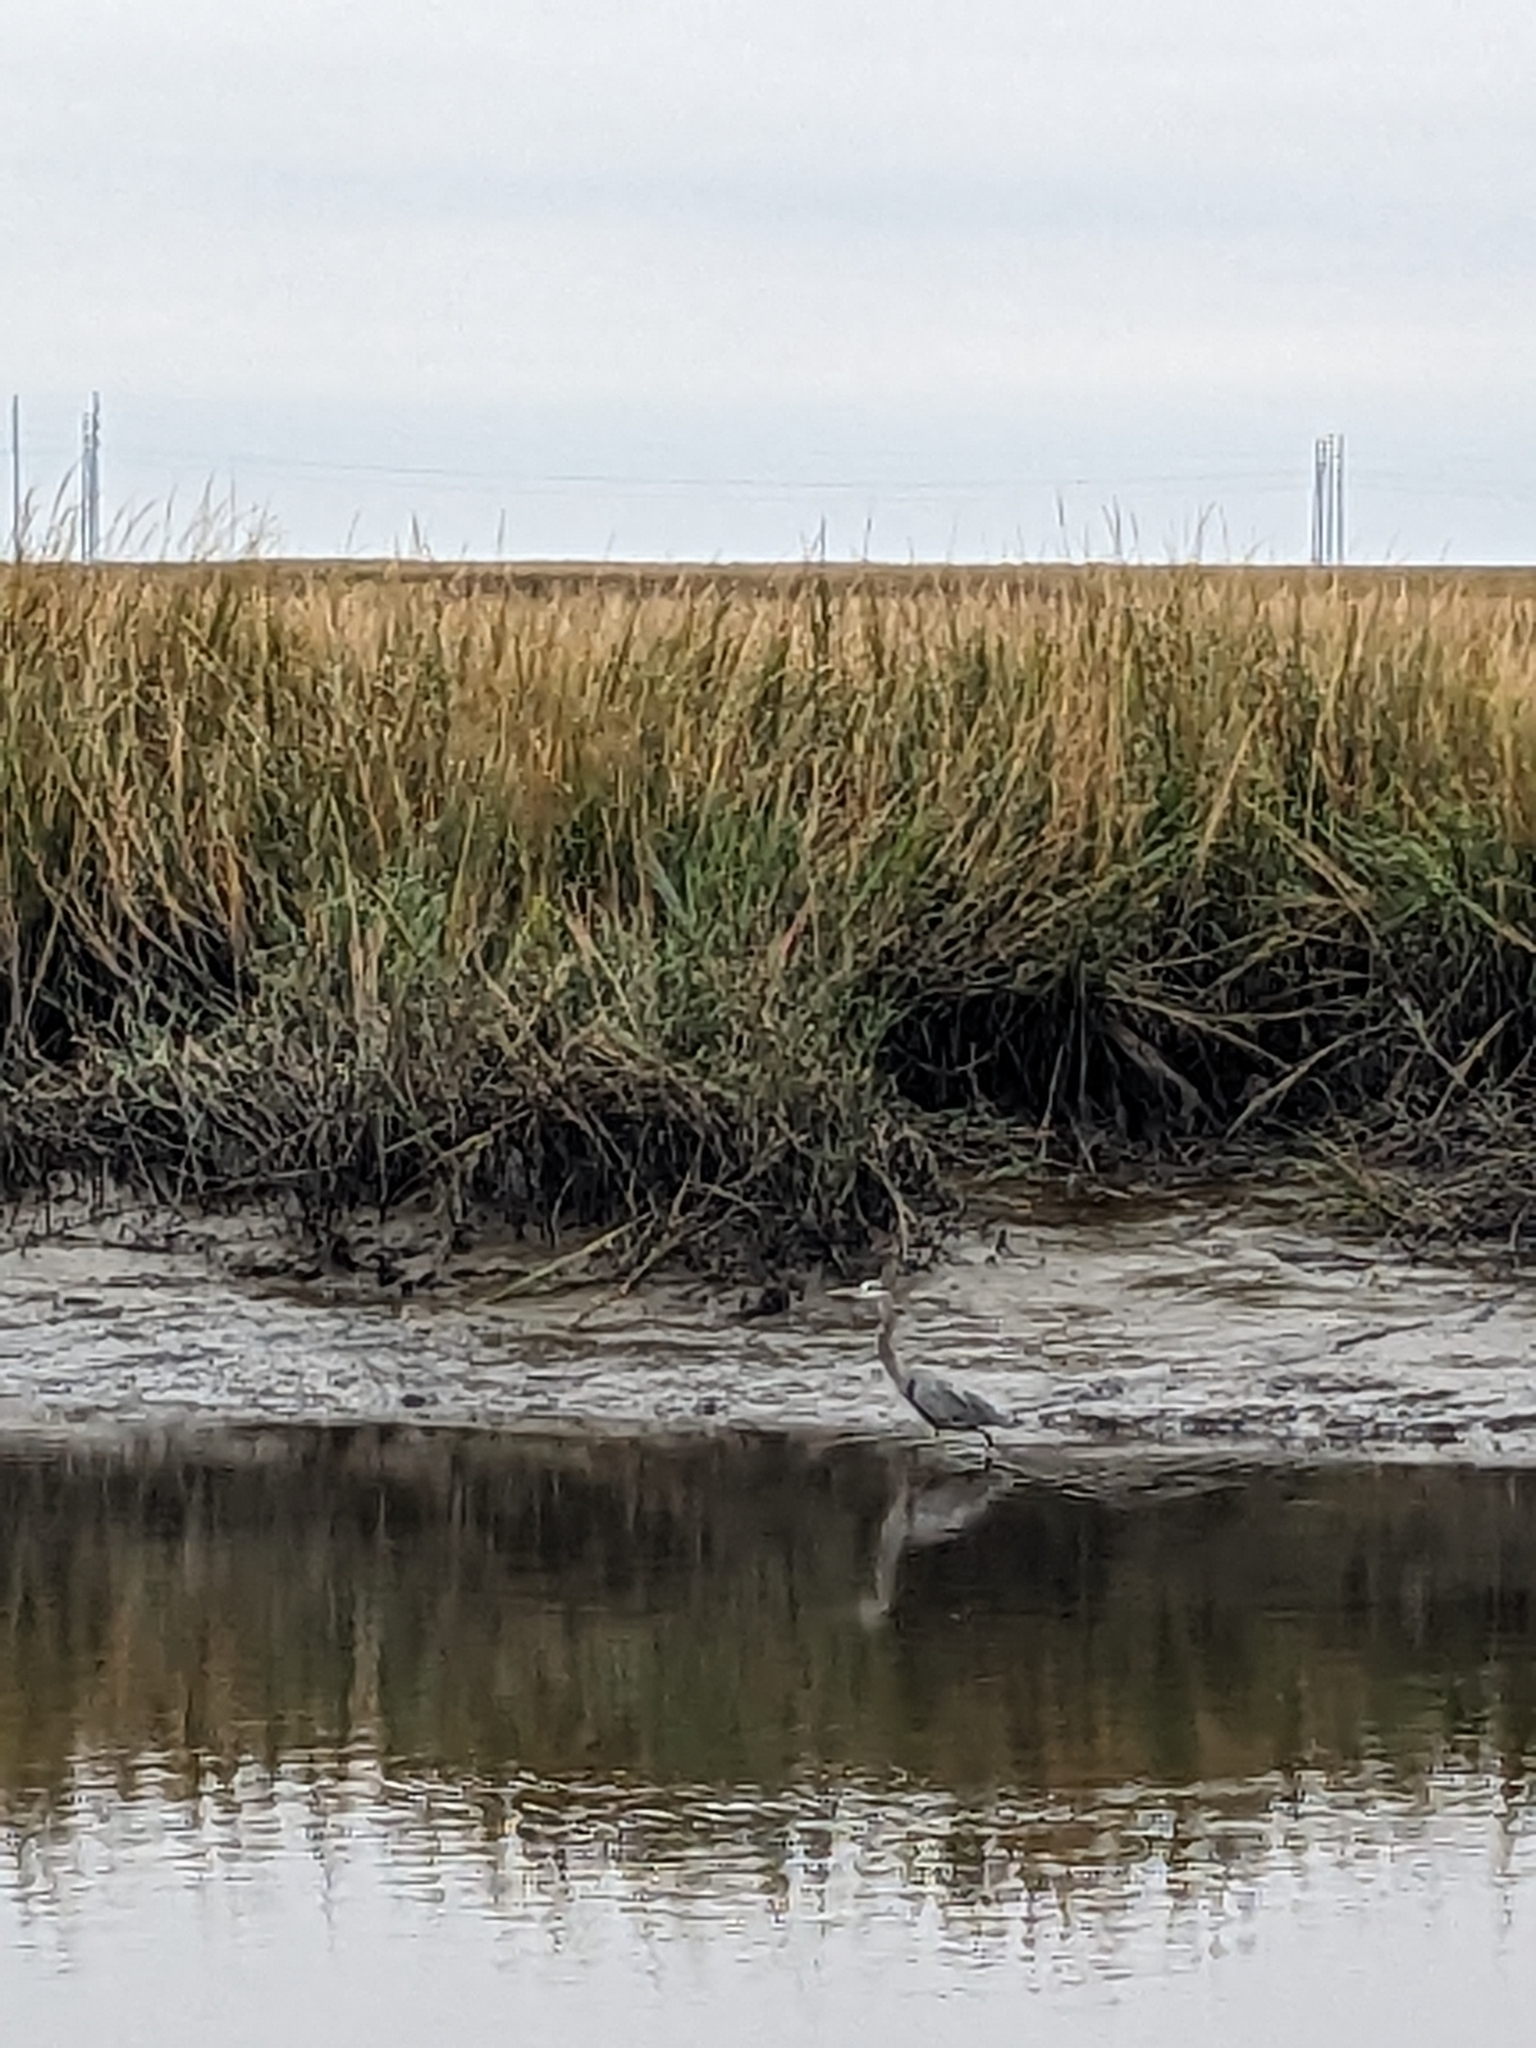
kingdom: Animalia
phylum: Chordata
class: Aves
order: Pelecaniformes
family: Ardeidae
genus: Ardea
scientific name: Ardea herodias
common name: Great blue heron
